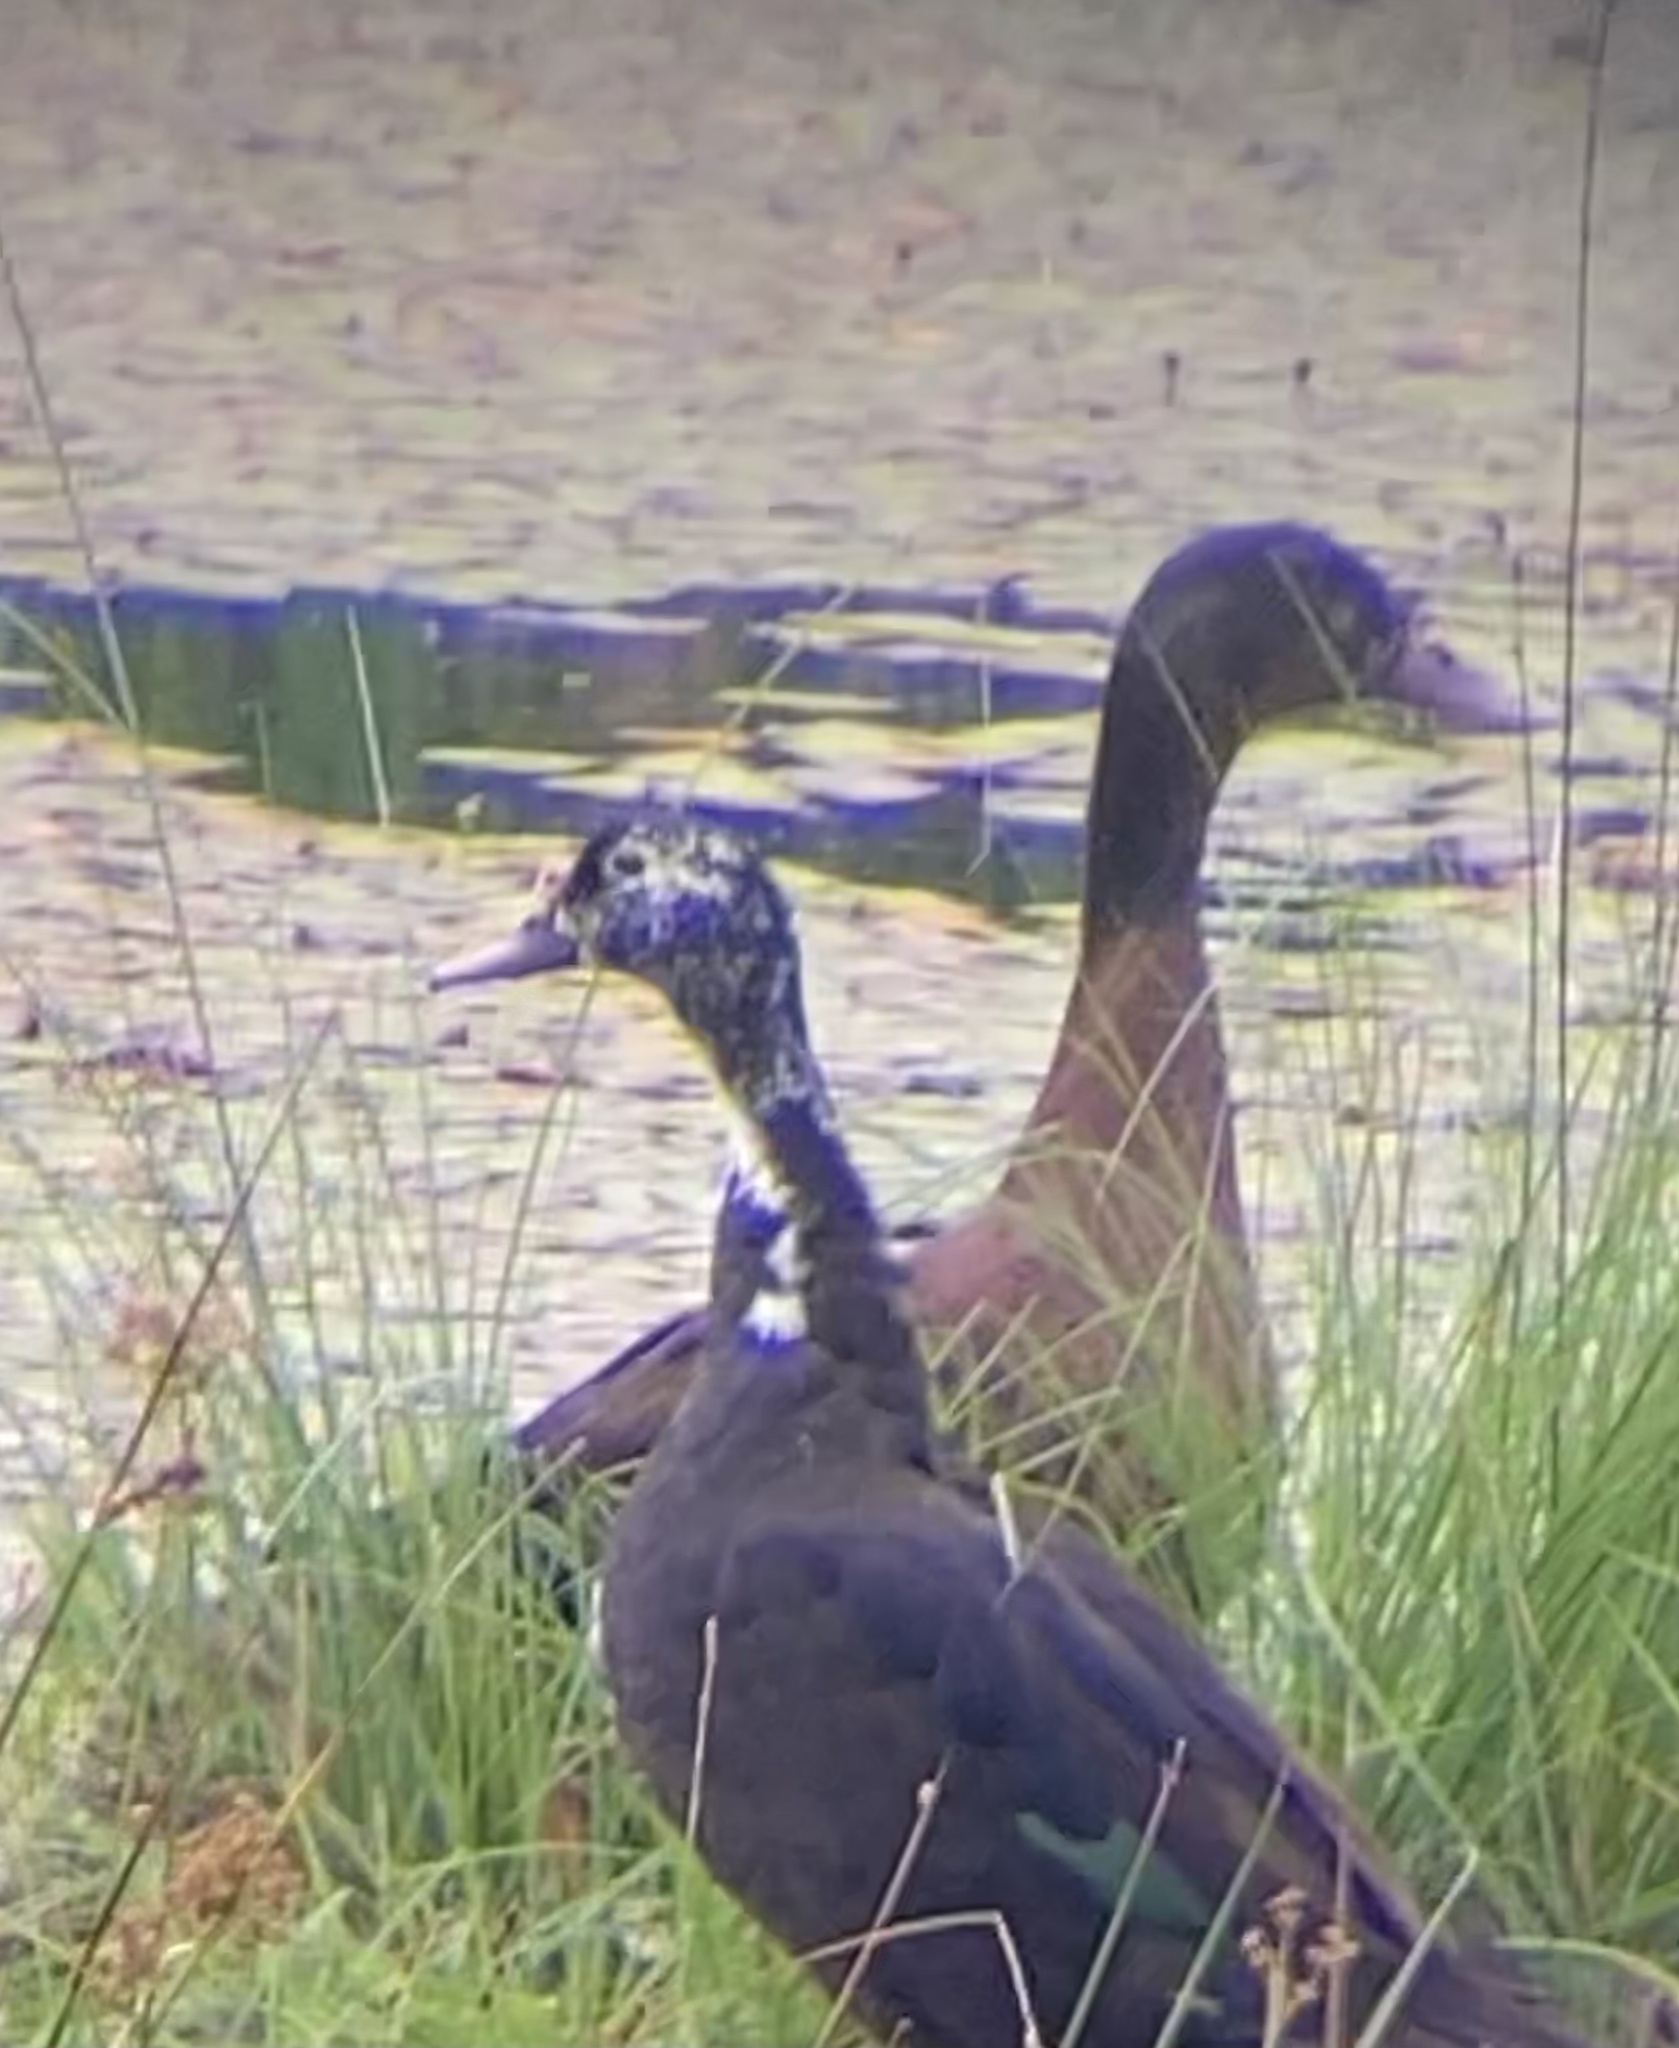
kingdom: Animalia
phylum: Chordata
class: Aves
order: Anseriformes
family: Anatidae
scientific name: Anatidae
